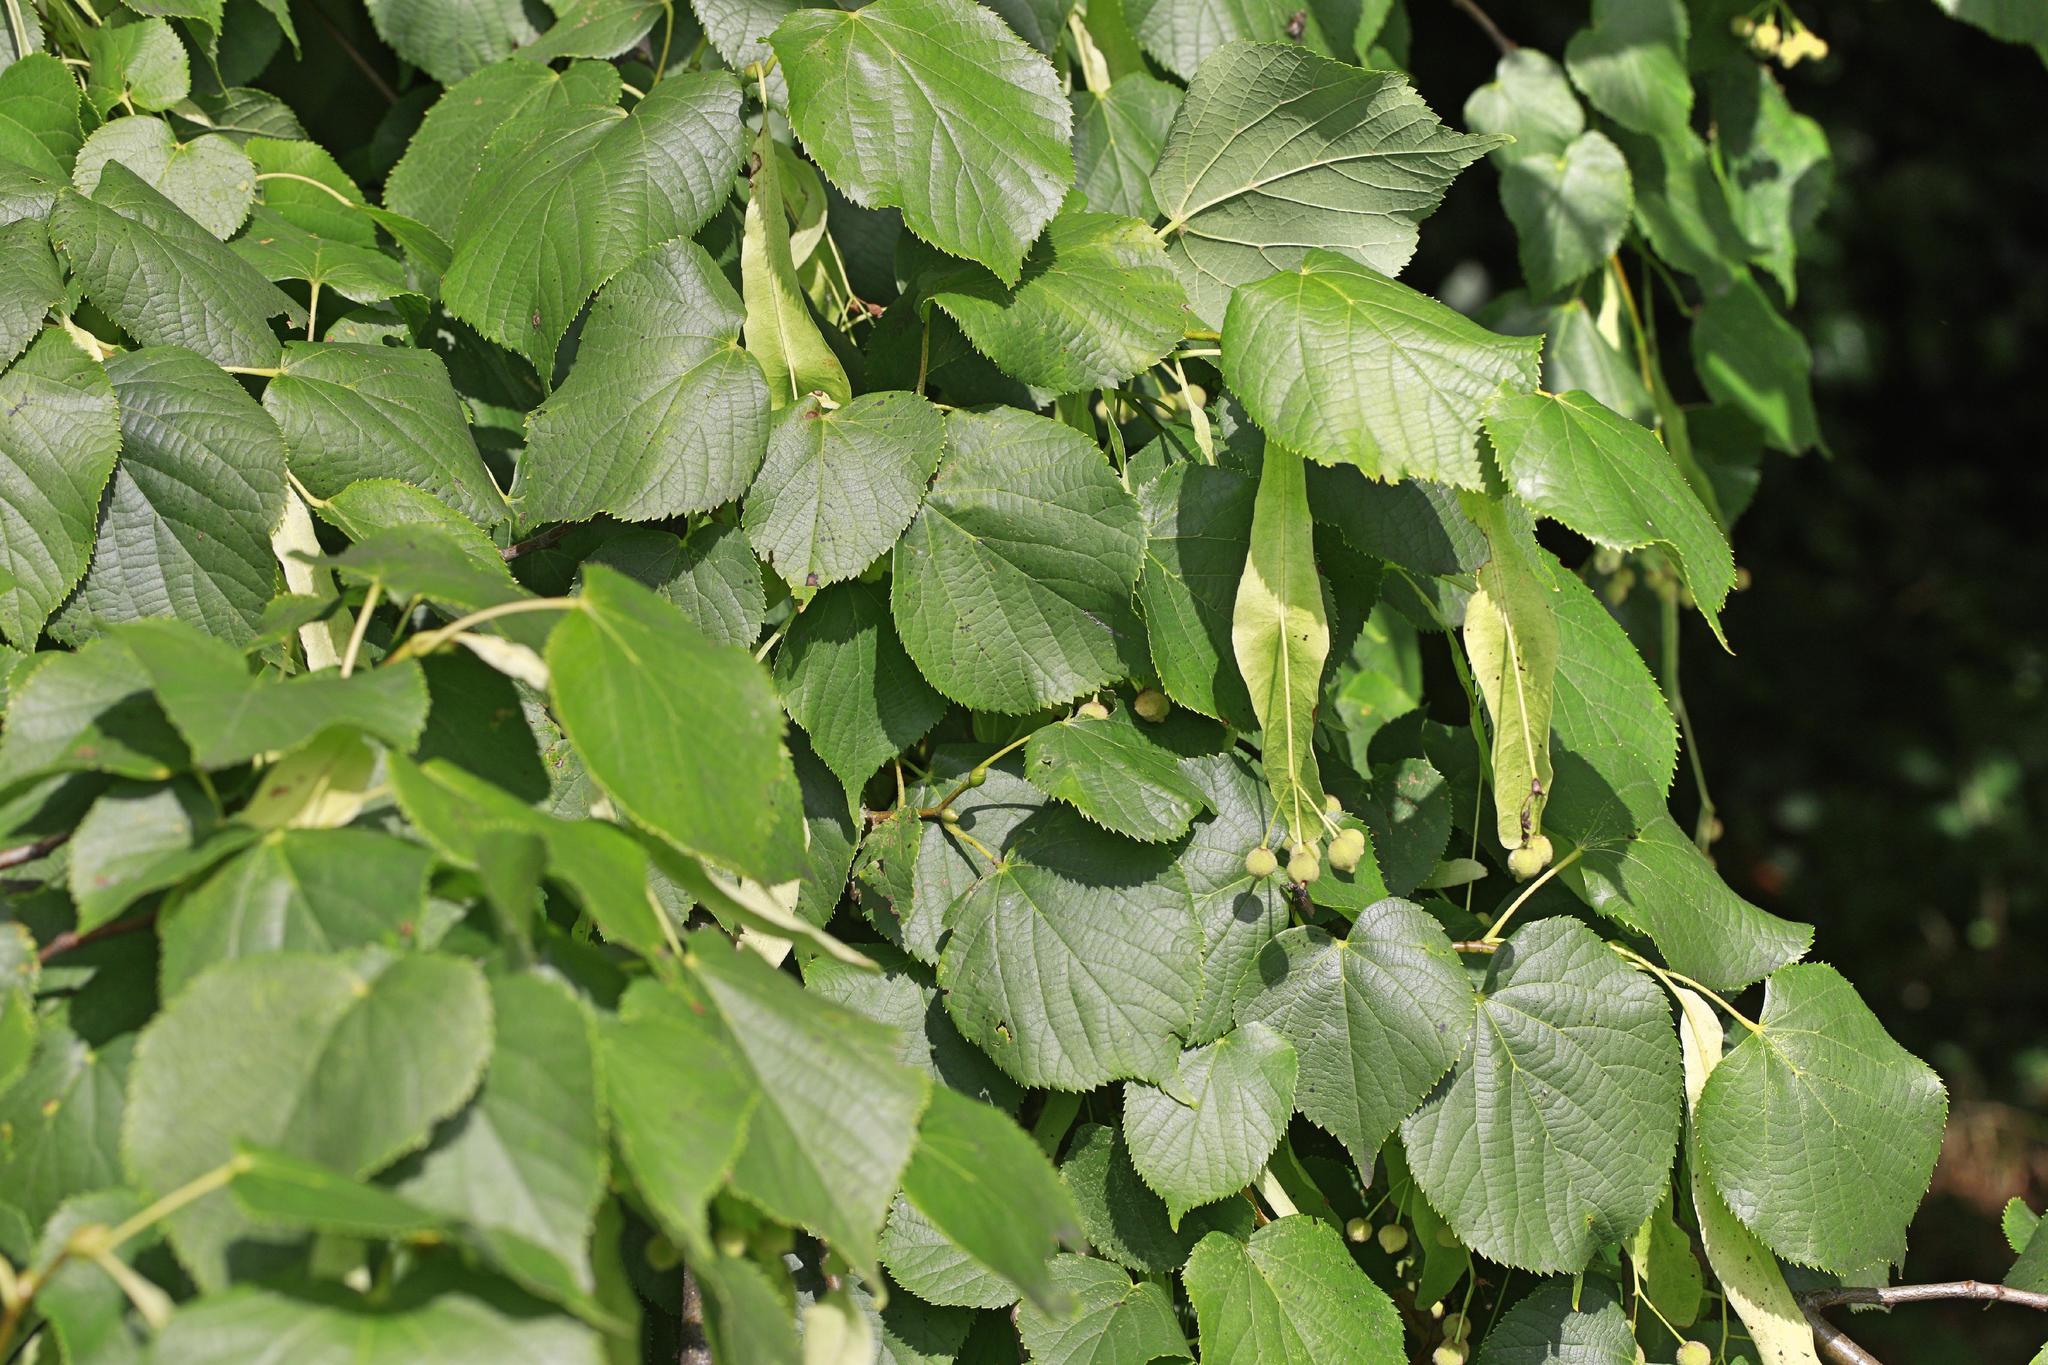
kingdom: Plantae
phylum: Tracheophyta
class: Magnoliopsida
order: Malvales
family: Malvaceae
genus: Tilia
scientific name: Tilia europaea
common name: European linden
